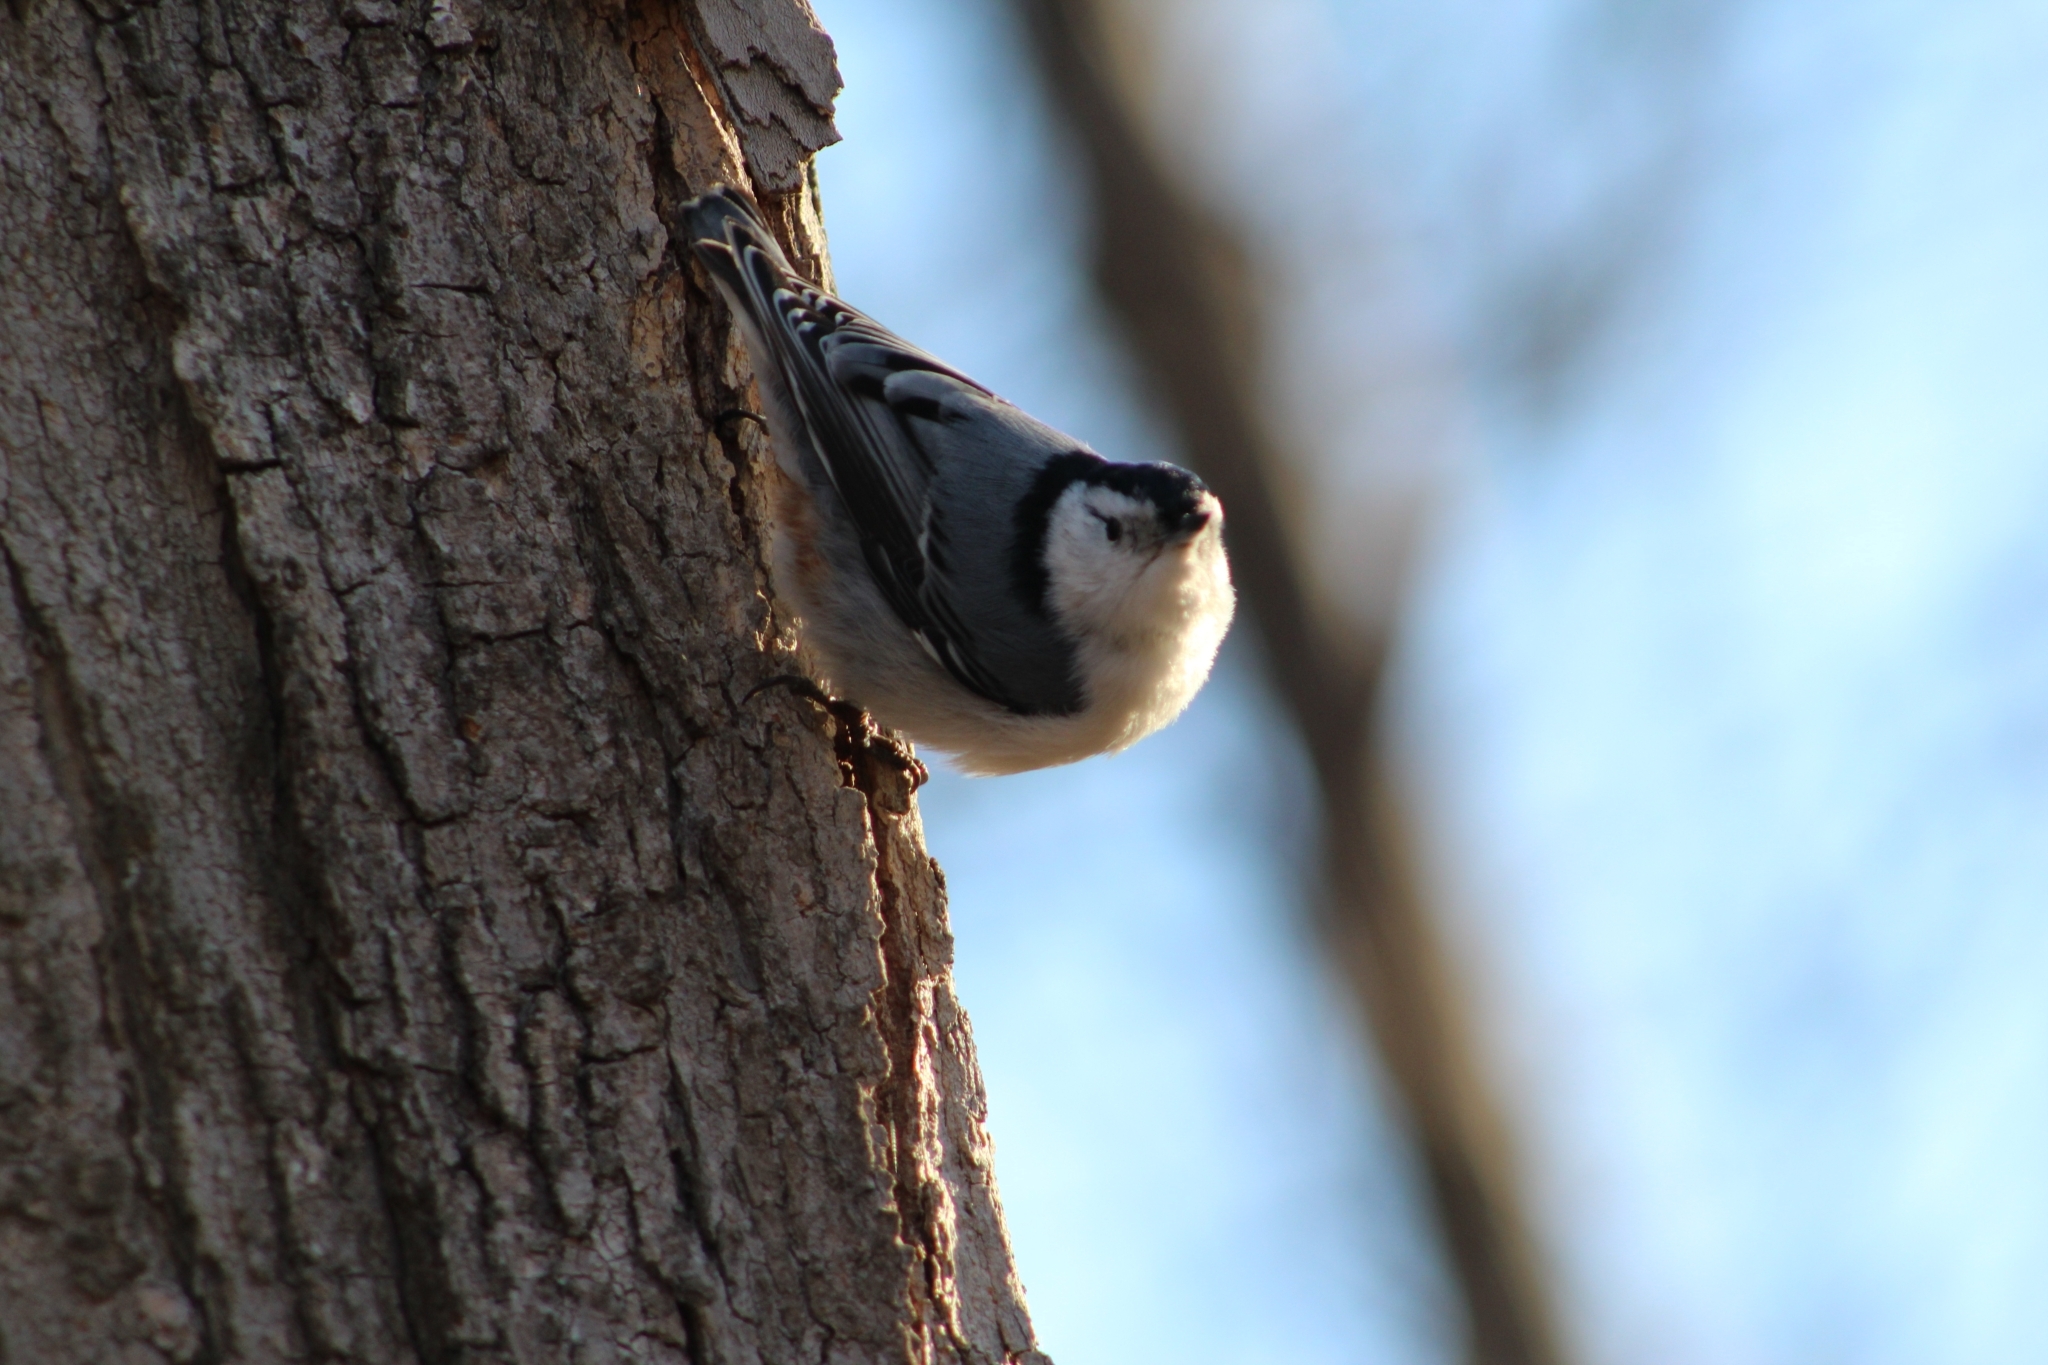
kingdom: Animalia
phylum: Chordata
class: Aves
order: Passeriformes
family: Sittidae
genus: Sitta
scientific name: Sitta carolinensis
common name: White-breasted nuthatch
